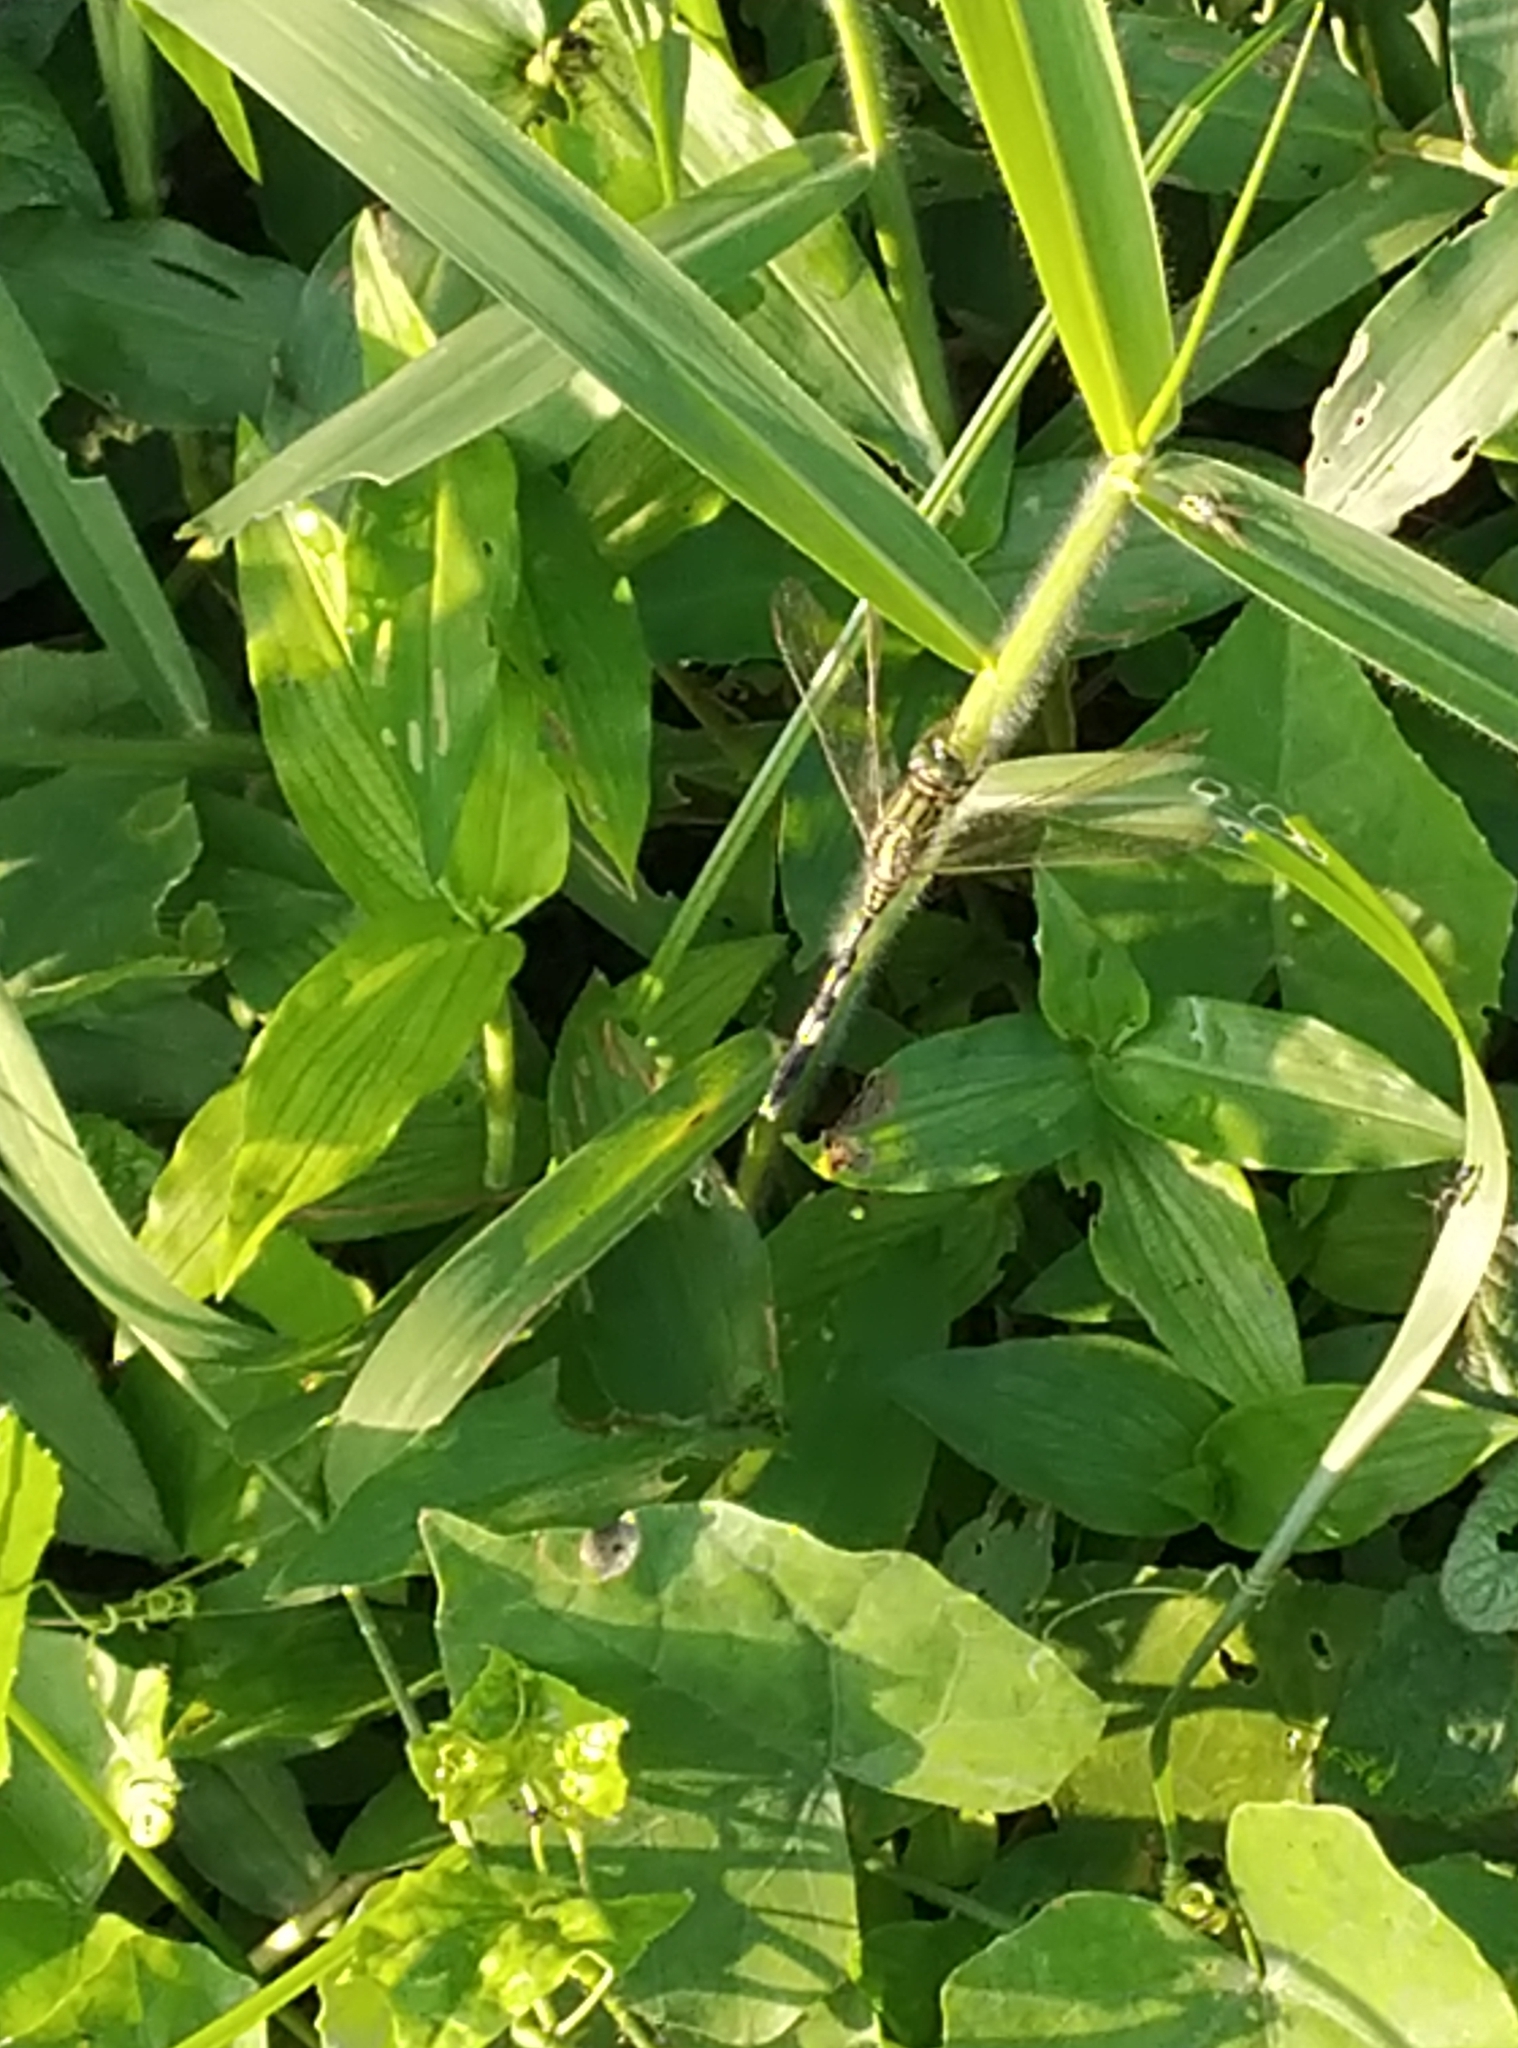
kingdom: Animalia
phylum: Arthropoda
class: Insecta
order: Odonata
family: Libellulidae
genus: Orthetrum
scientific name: Orthetrum sabina
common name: Slender skimmer
